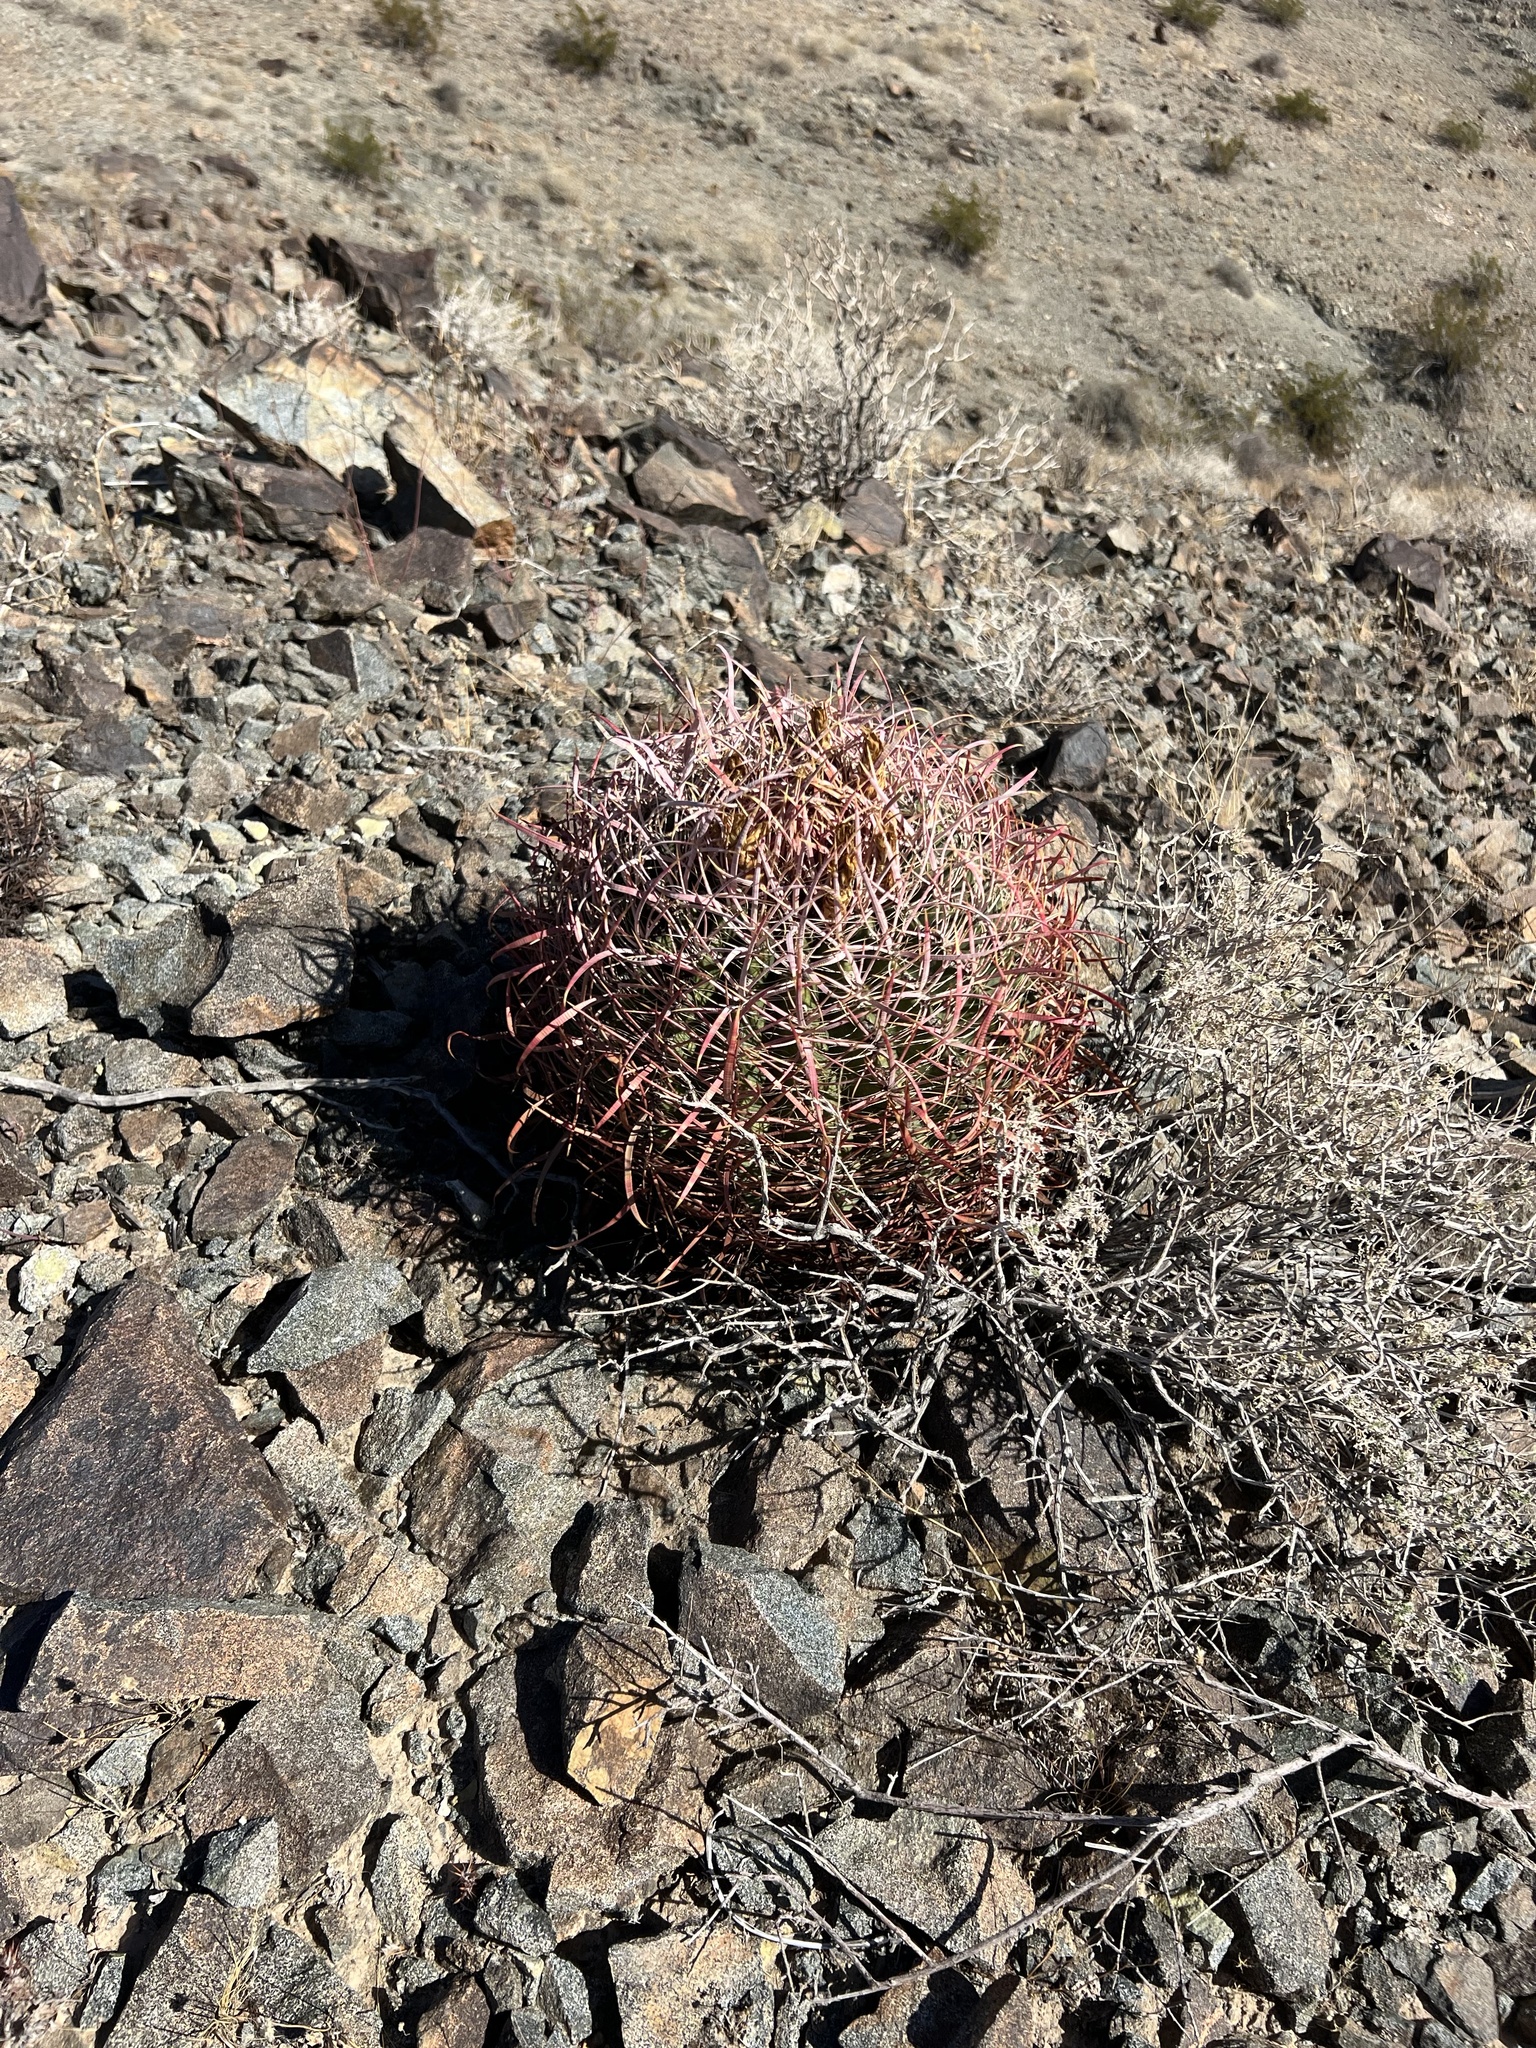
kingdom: Plantae
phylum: Tracheophyta
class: Magnoliopsida
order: Caryophyllales
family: Cactaceae
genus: Ferocactus
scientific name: Ferocactus cylindraceus
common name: California barrel cactus
